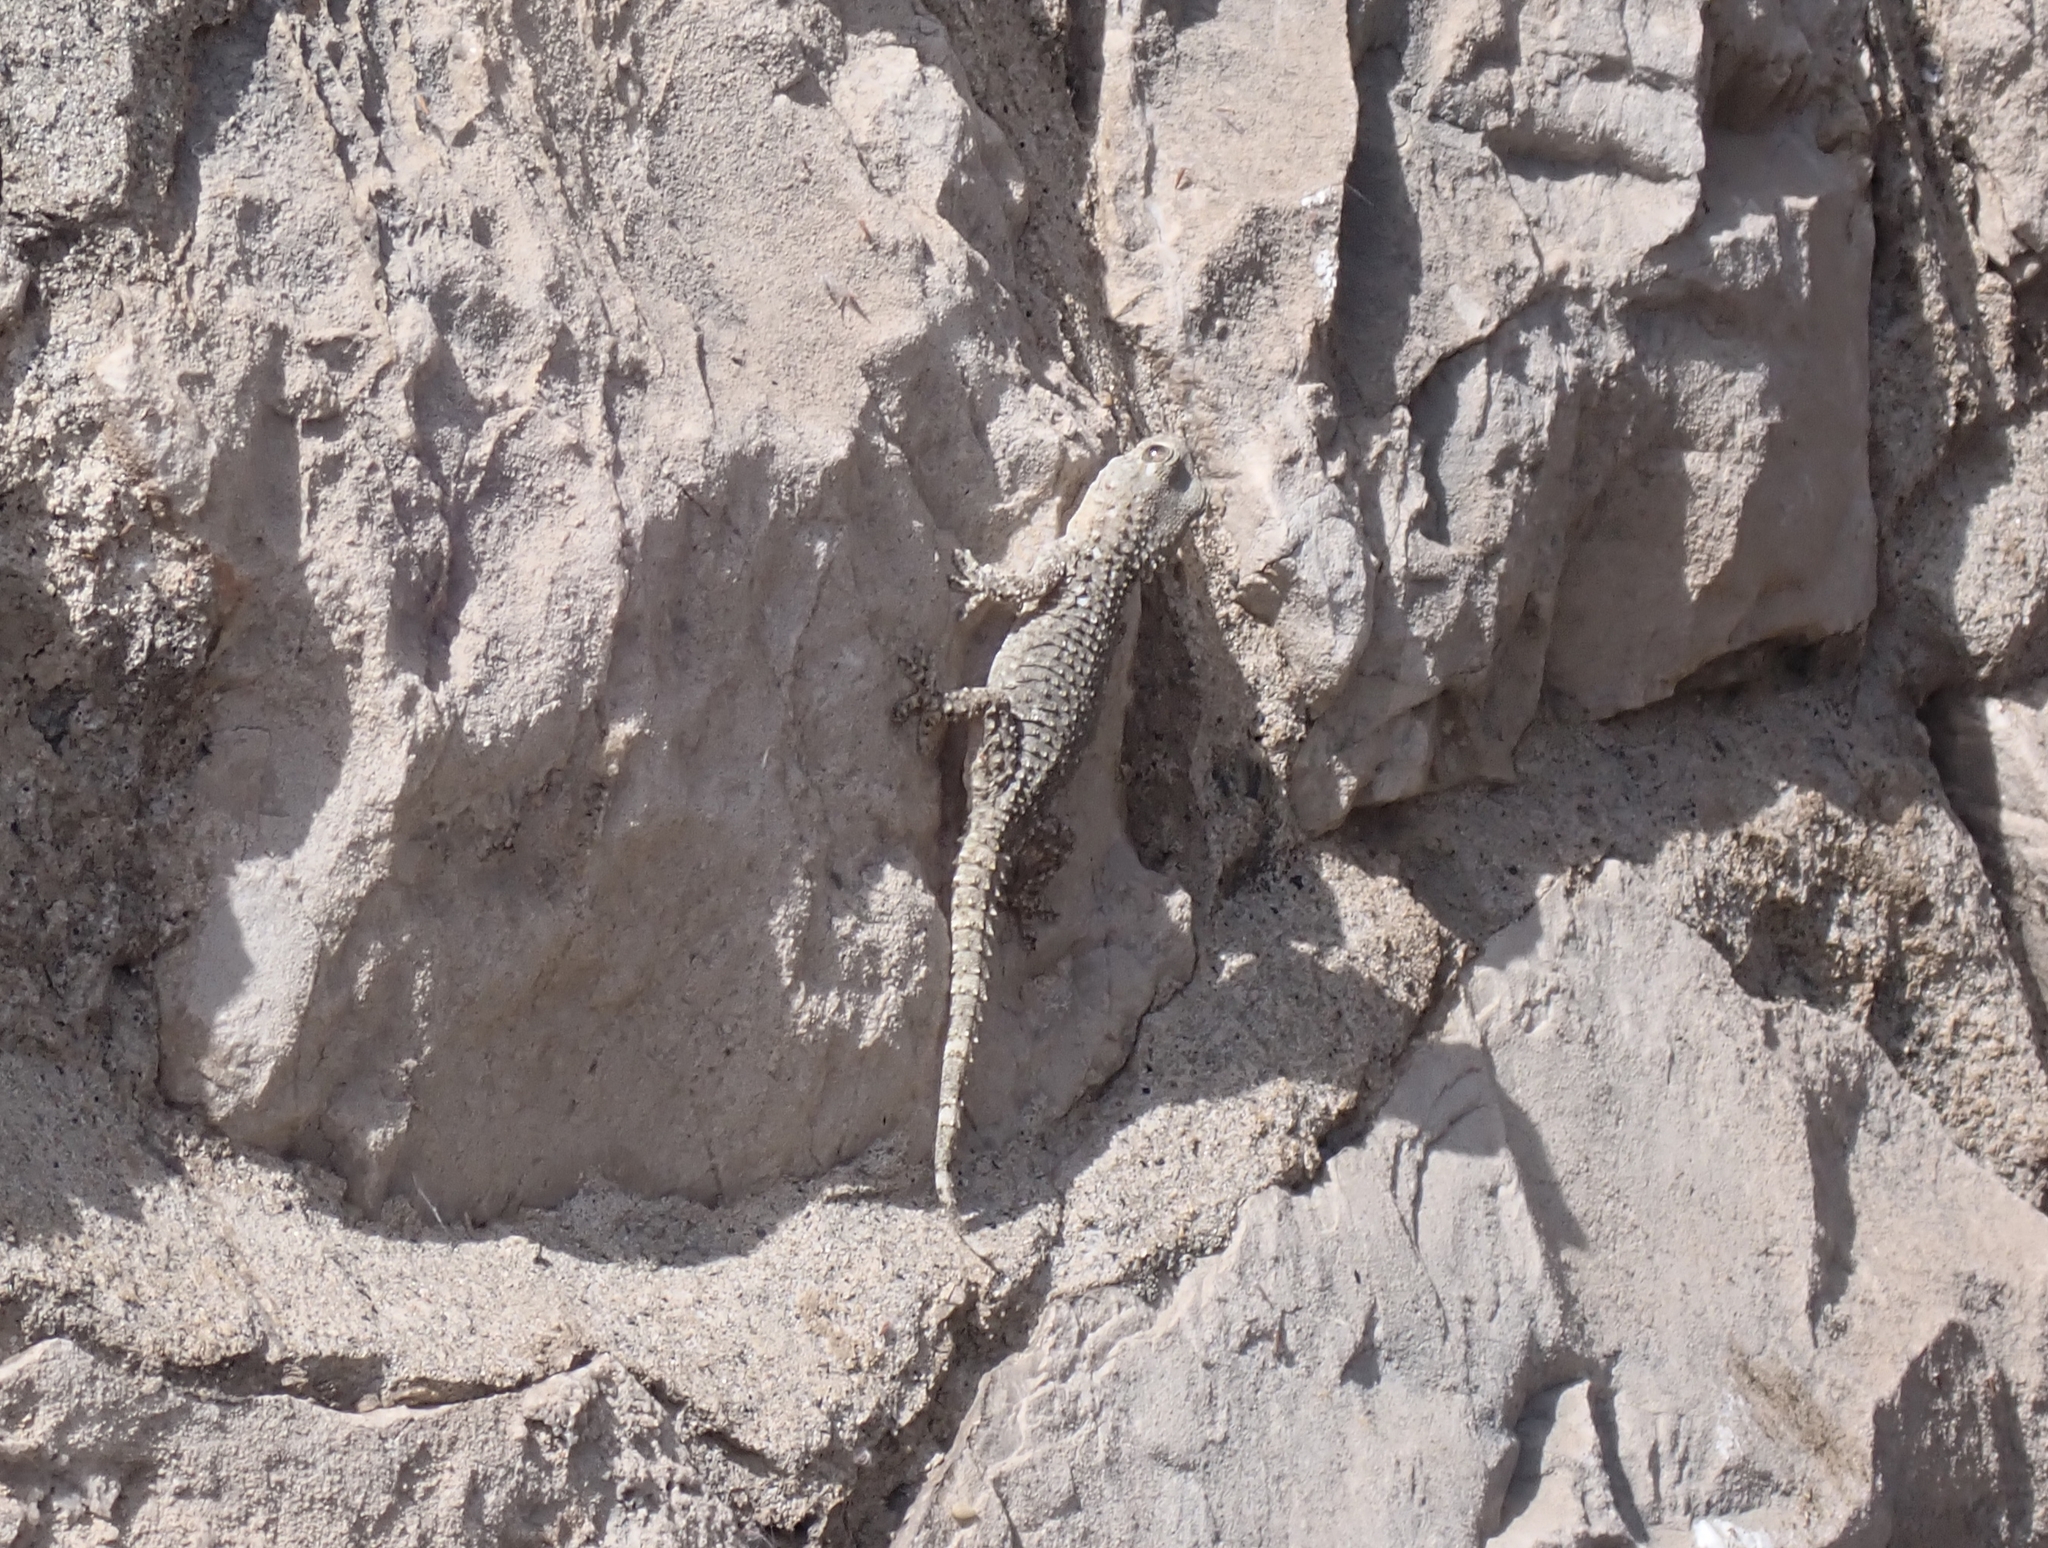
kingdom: Animalia
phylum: Chordata
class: Squamata
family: Phyllodactylidae
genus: Tarentola
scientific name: Tarentola mauritanica
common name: Moorish gecko
